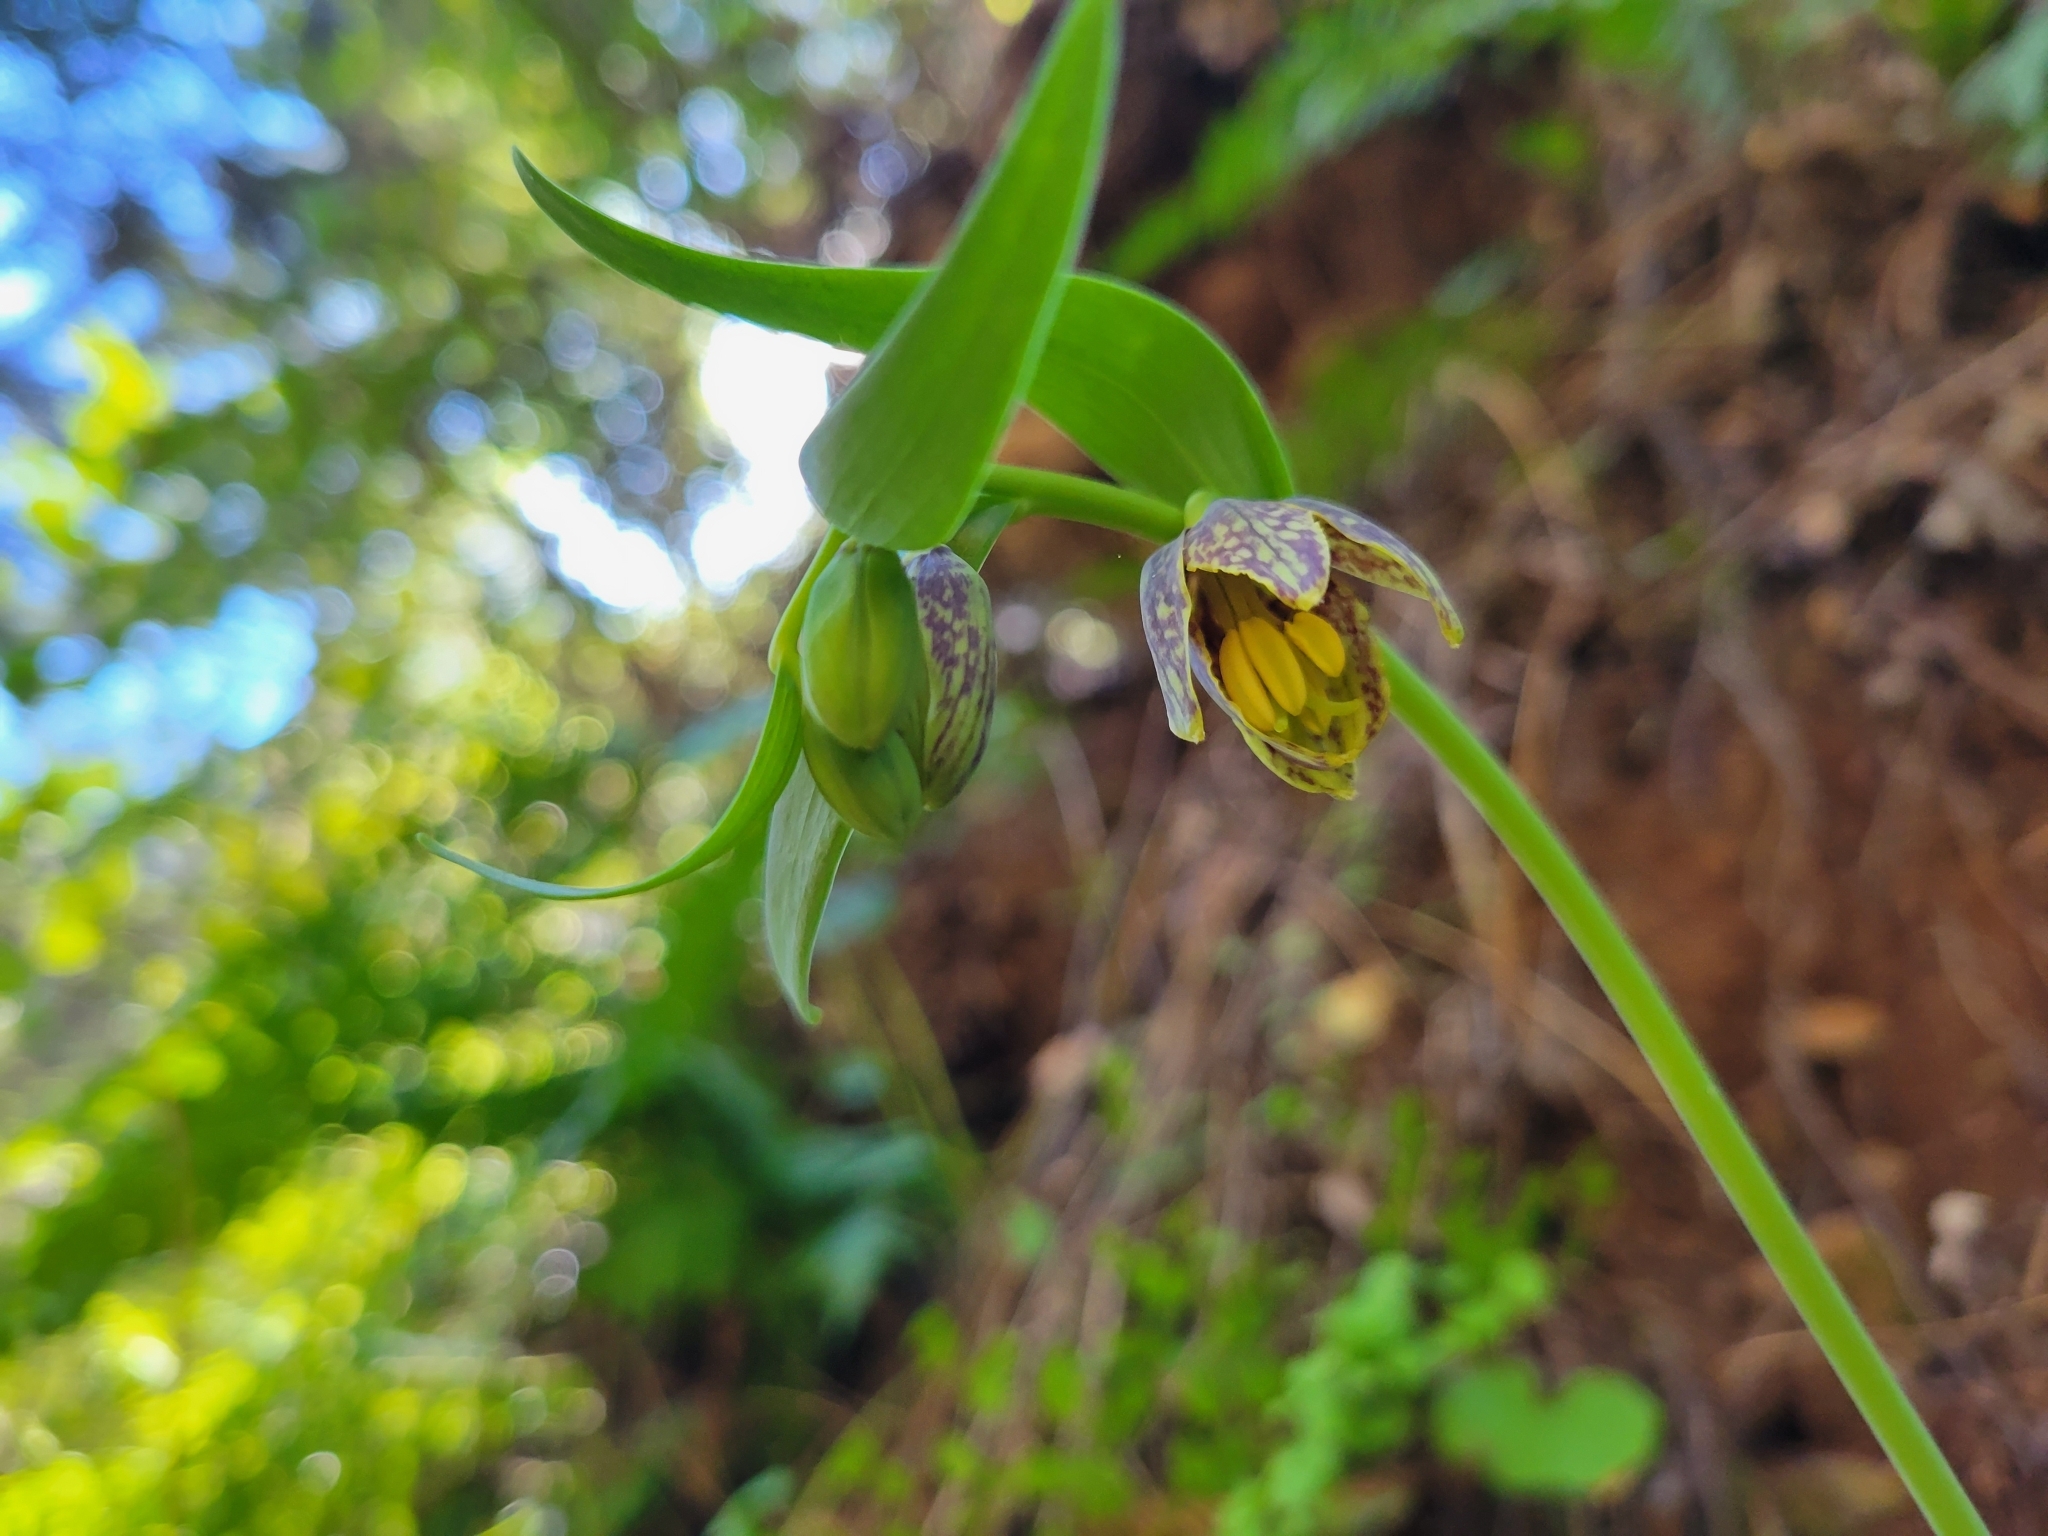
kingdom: Plantae
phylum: Tracheophyta
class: Liliopsida
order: Liliales
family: Liliaceae
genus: Fritillaria
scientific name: Fritillaria affinis
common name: Ojai fritillary
